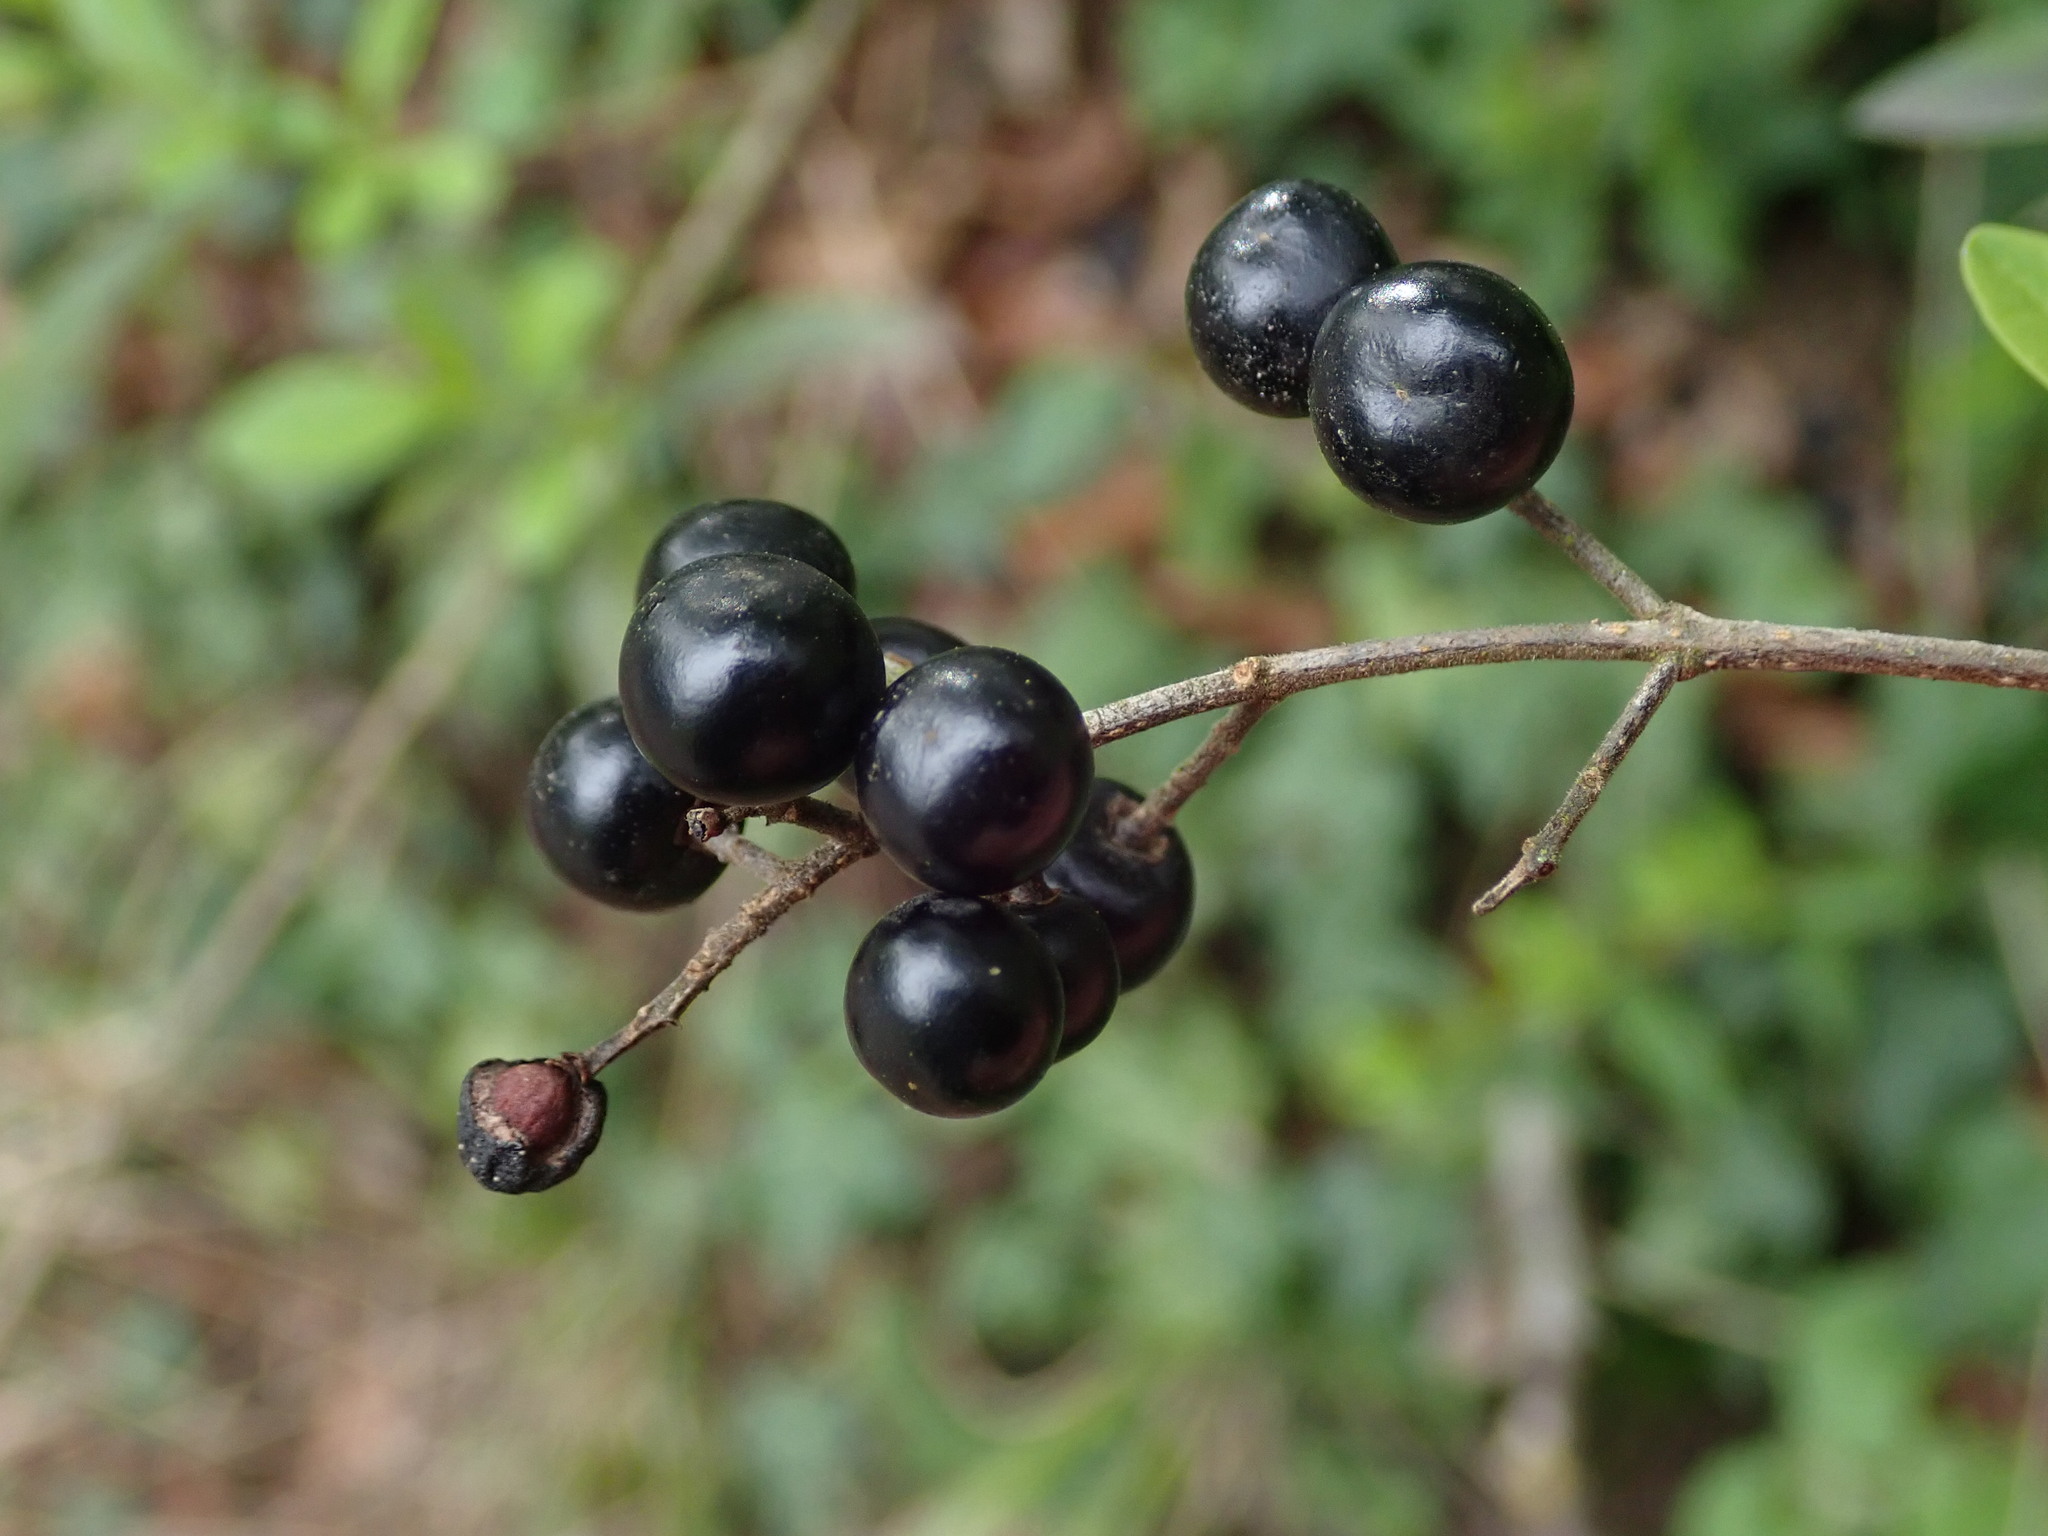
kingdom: Plantae
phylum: Tracheophyta
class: Magnoliopsida
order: Lamiales
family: Oleaceae
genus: Ligustrum
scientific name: Ligustrum vulgare
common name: Wild privet
